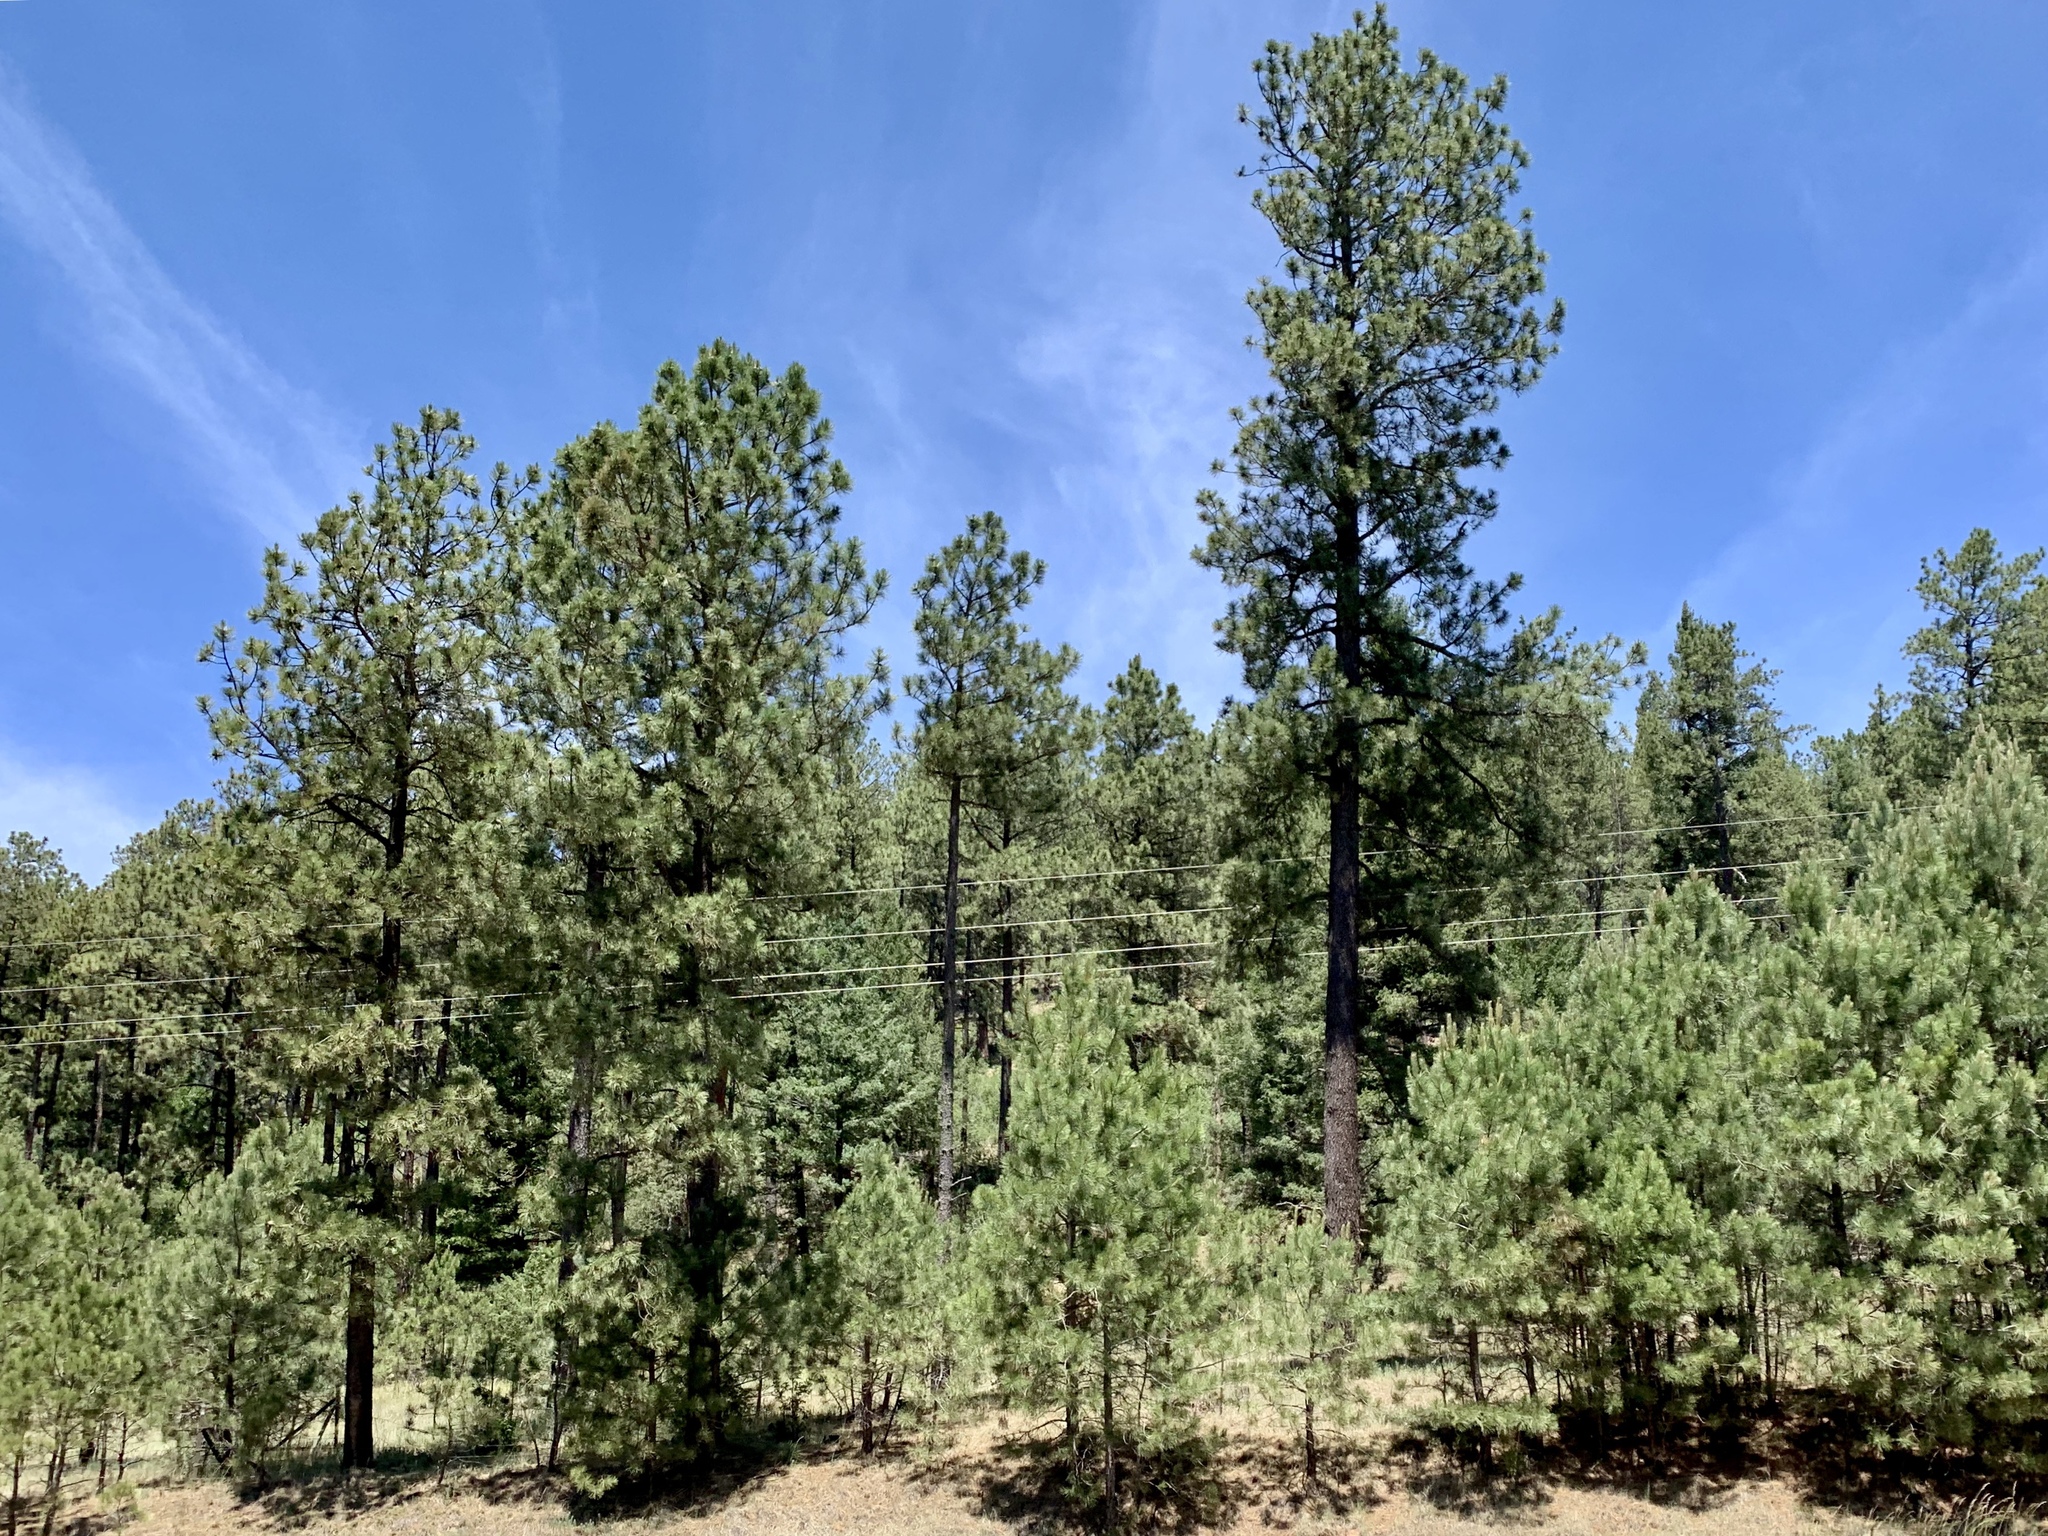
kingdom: Plantae
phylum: Tracheophyta
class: Pinopsida
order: Pinales
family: Pinaceae
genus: Pinus
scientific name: Pinus ponderosa
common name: Western yellow-pine
